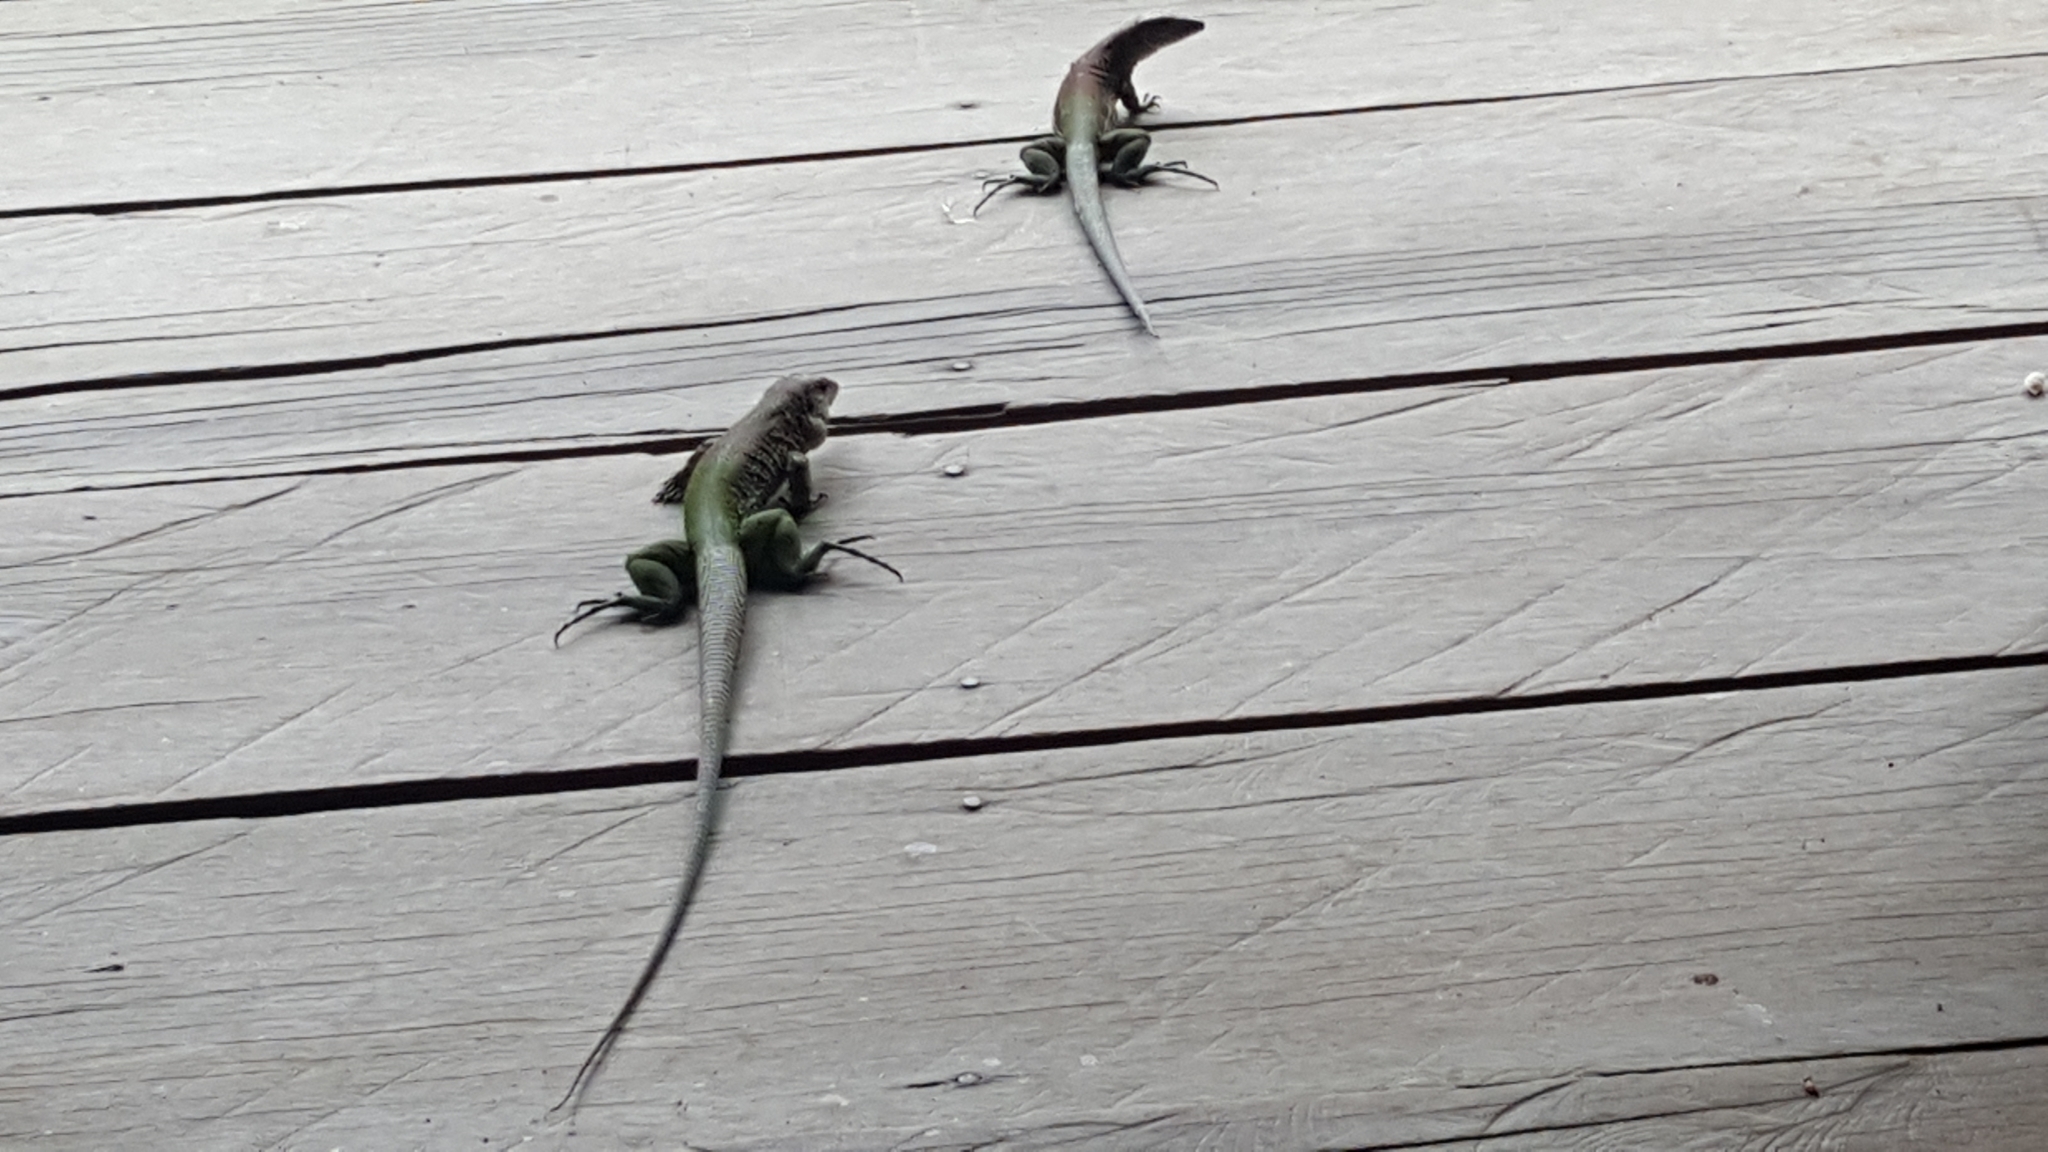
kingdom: Animalia
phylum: Chordata
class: Squamata
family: Teiidae
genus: Ameiva
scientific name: Ameiva ameiva
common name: Giant ameiva
